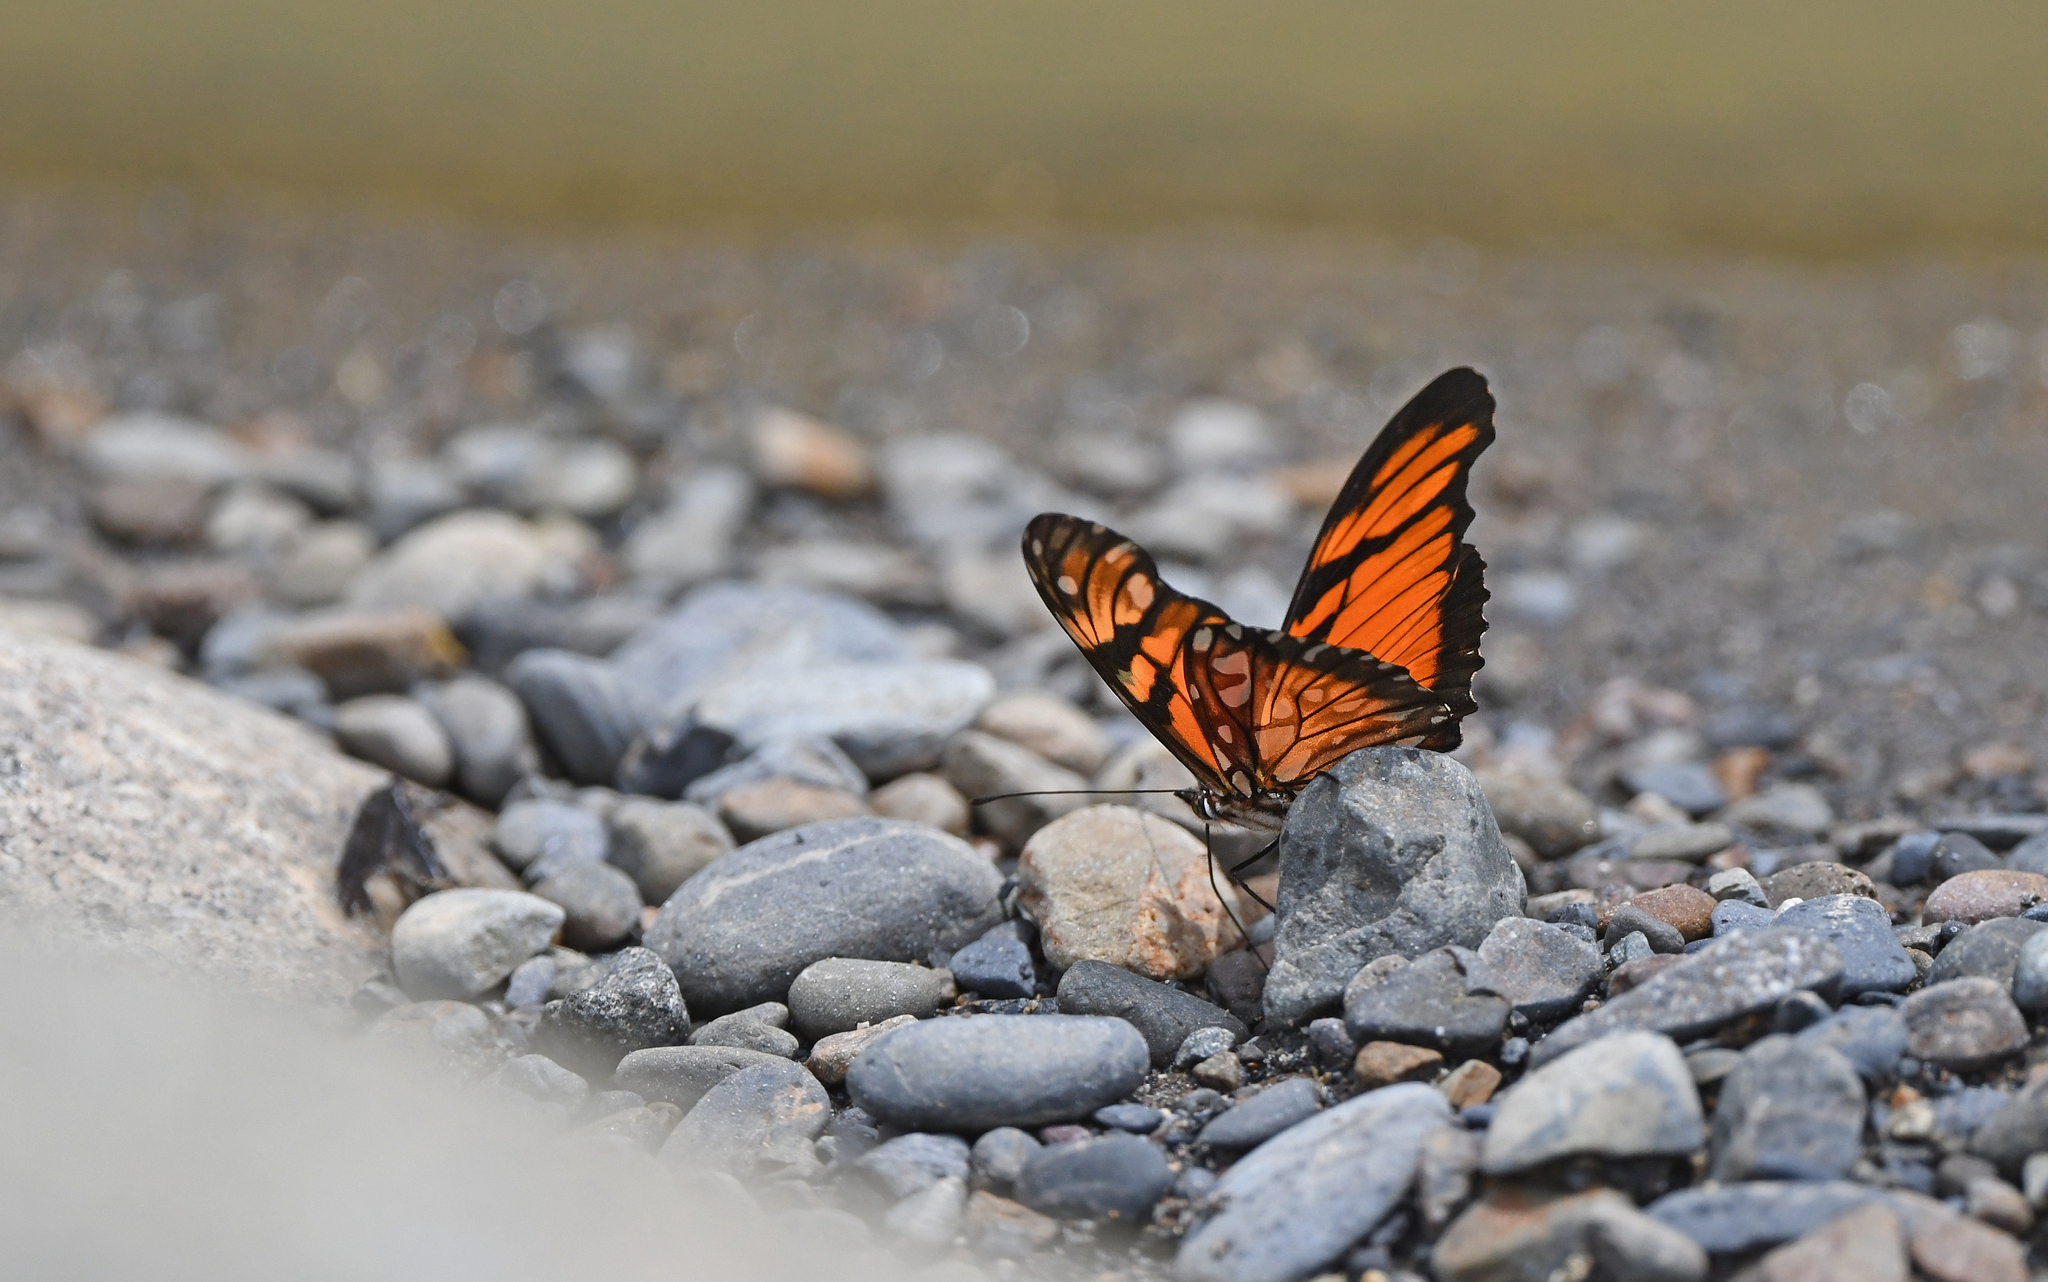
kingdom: Animalia
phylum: Arthropoda
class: Insecta
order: Lepidoptera
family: Nymphalidae
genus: Dione
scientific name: Dione juno
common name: Juno silverspot
